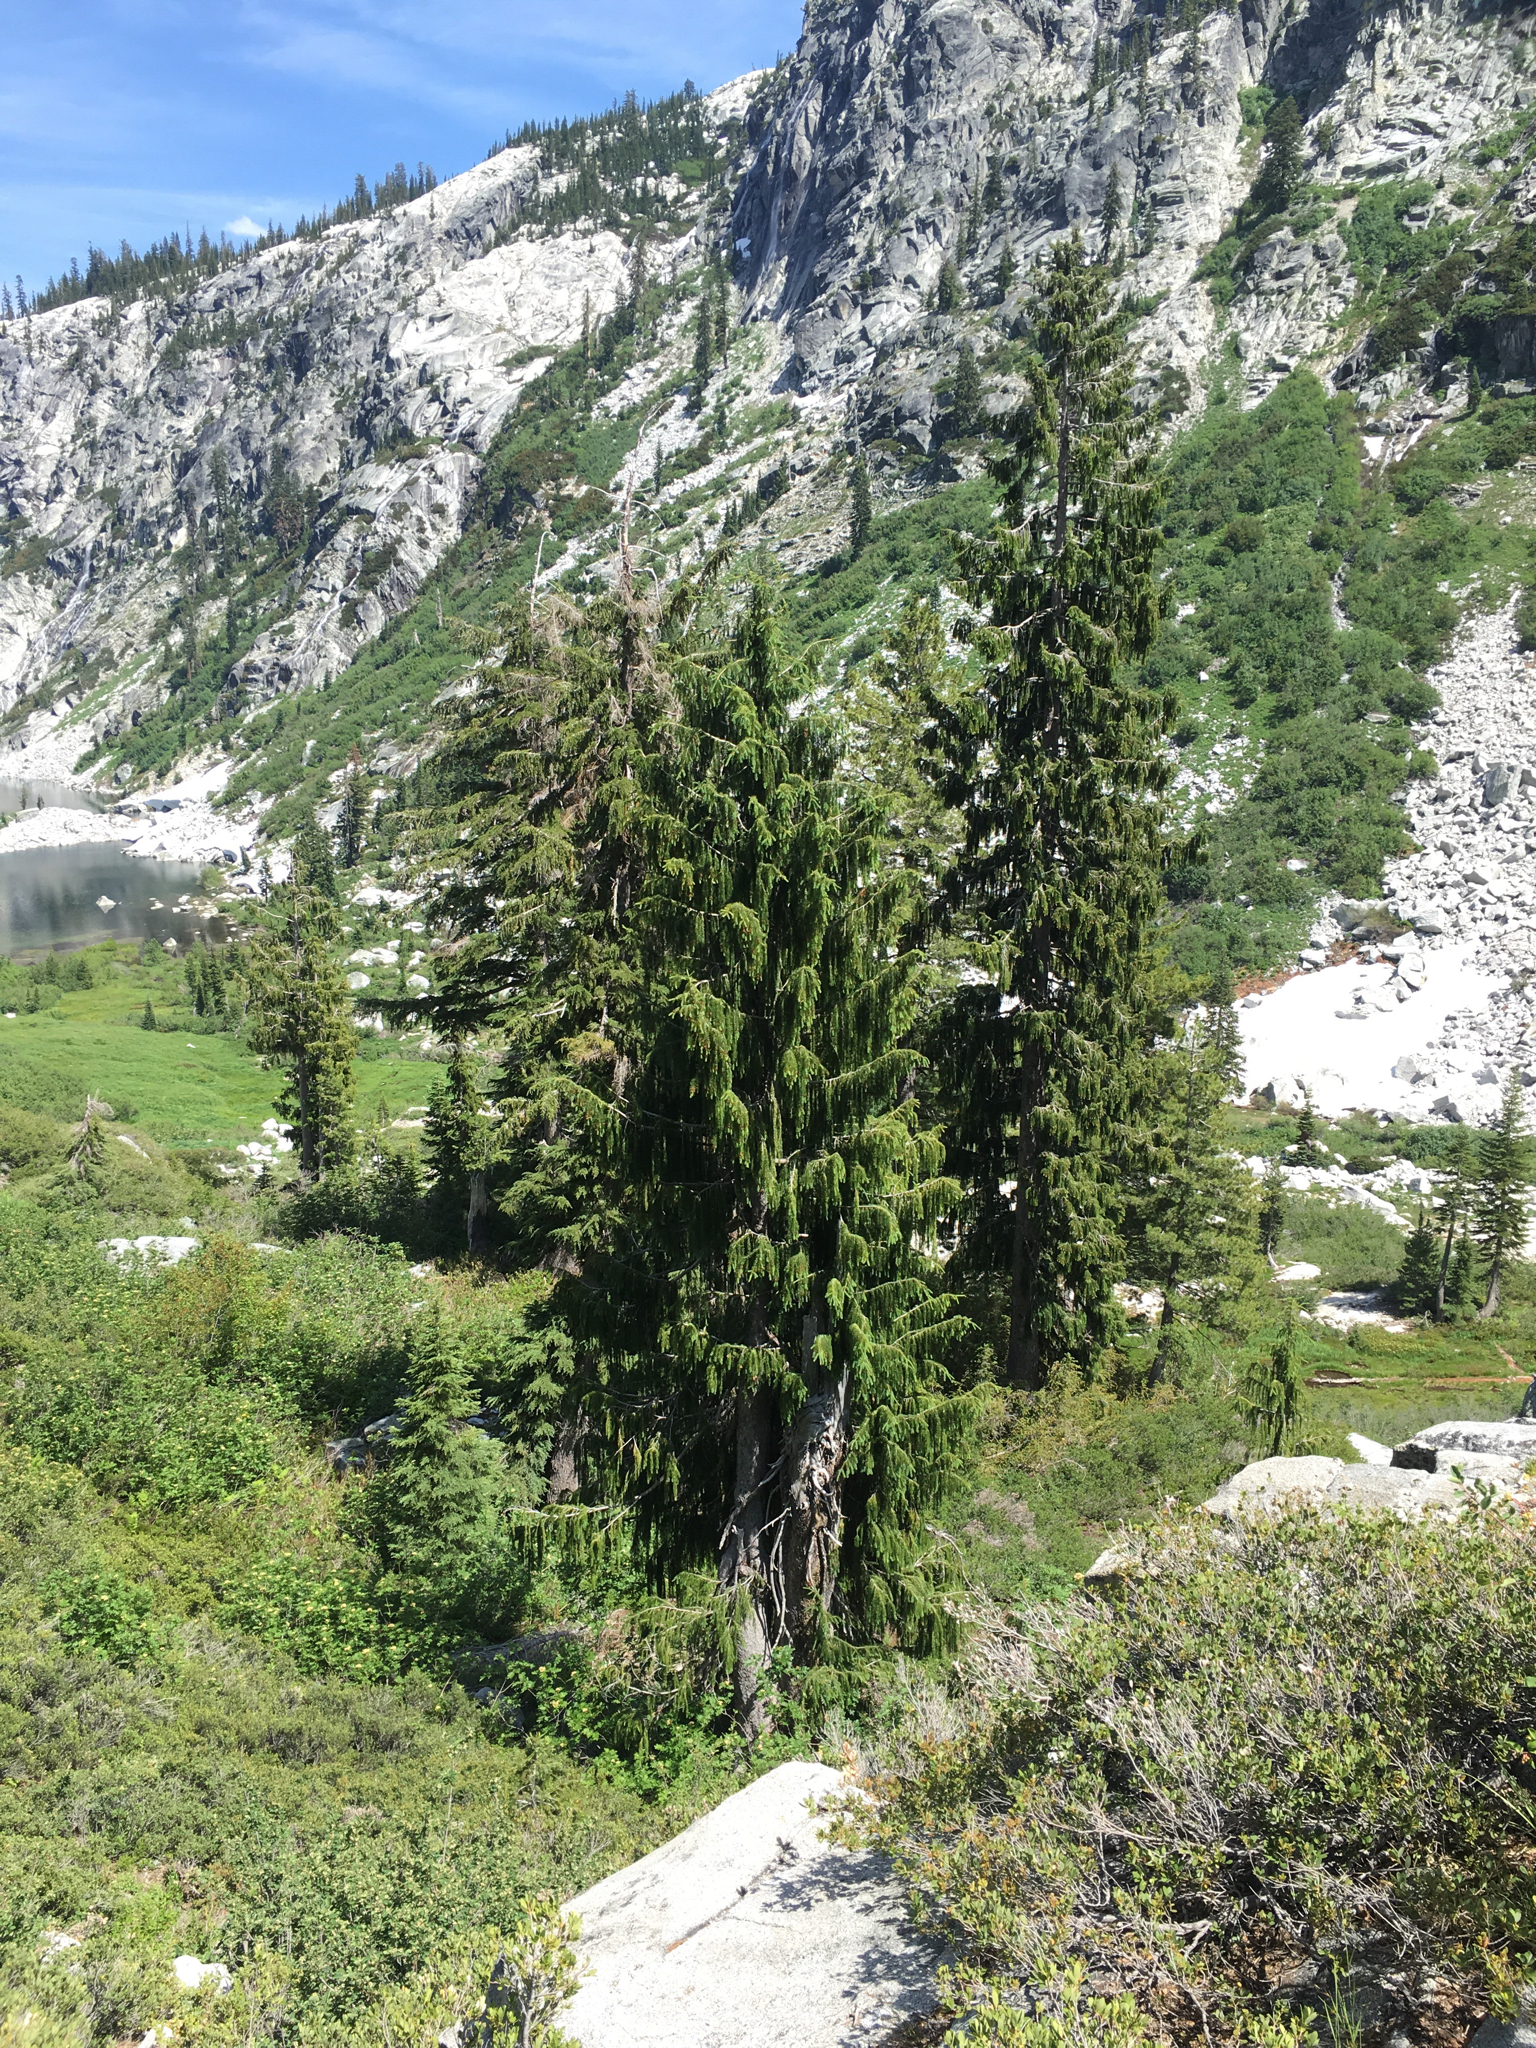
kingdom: Plantae
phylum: Tracheophyta
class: Pinopsida
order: Pinales
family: Pinaceae
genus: Picea
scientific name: Picea breweriana
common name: Brewer's spruce
